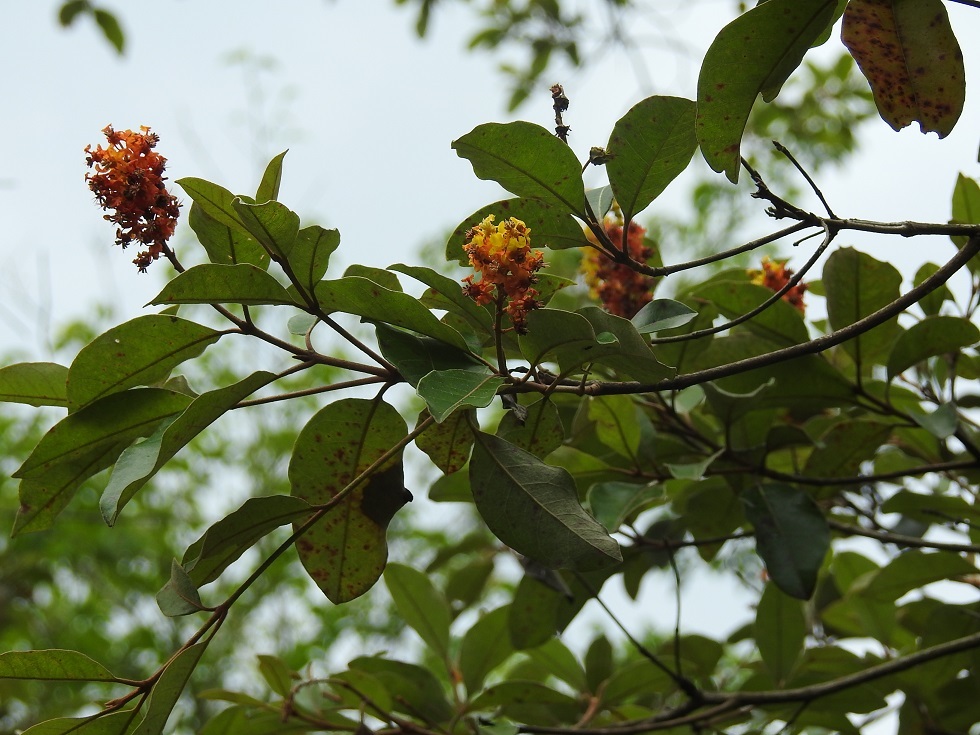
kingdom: Plantae
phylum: Tracheophyta
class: Magnoliopsida
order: Malpighiales
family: Malpighiaceae
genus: Byrsonima
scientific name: Byrsonima crassifolia
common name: Golden spoon
